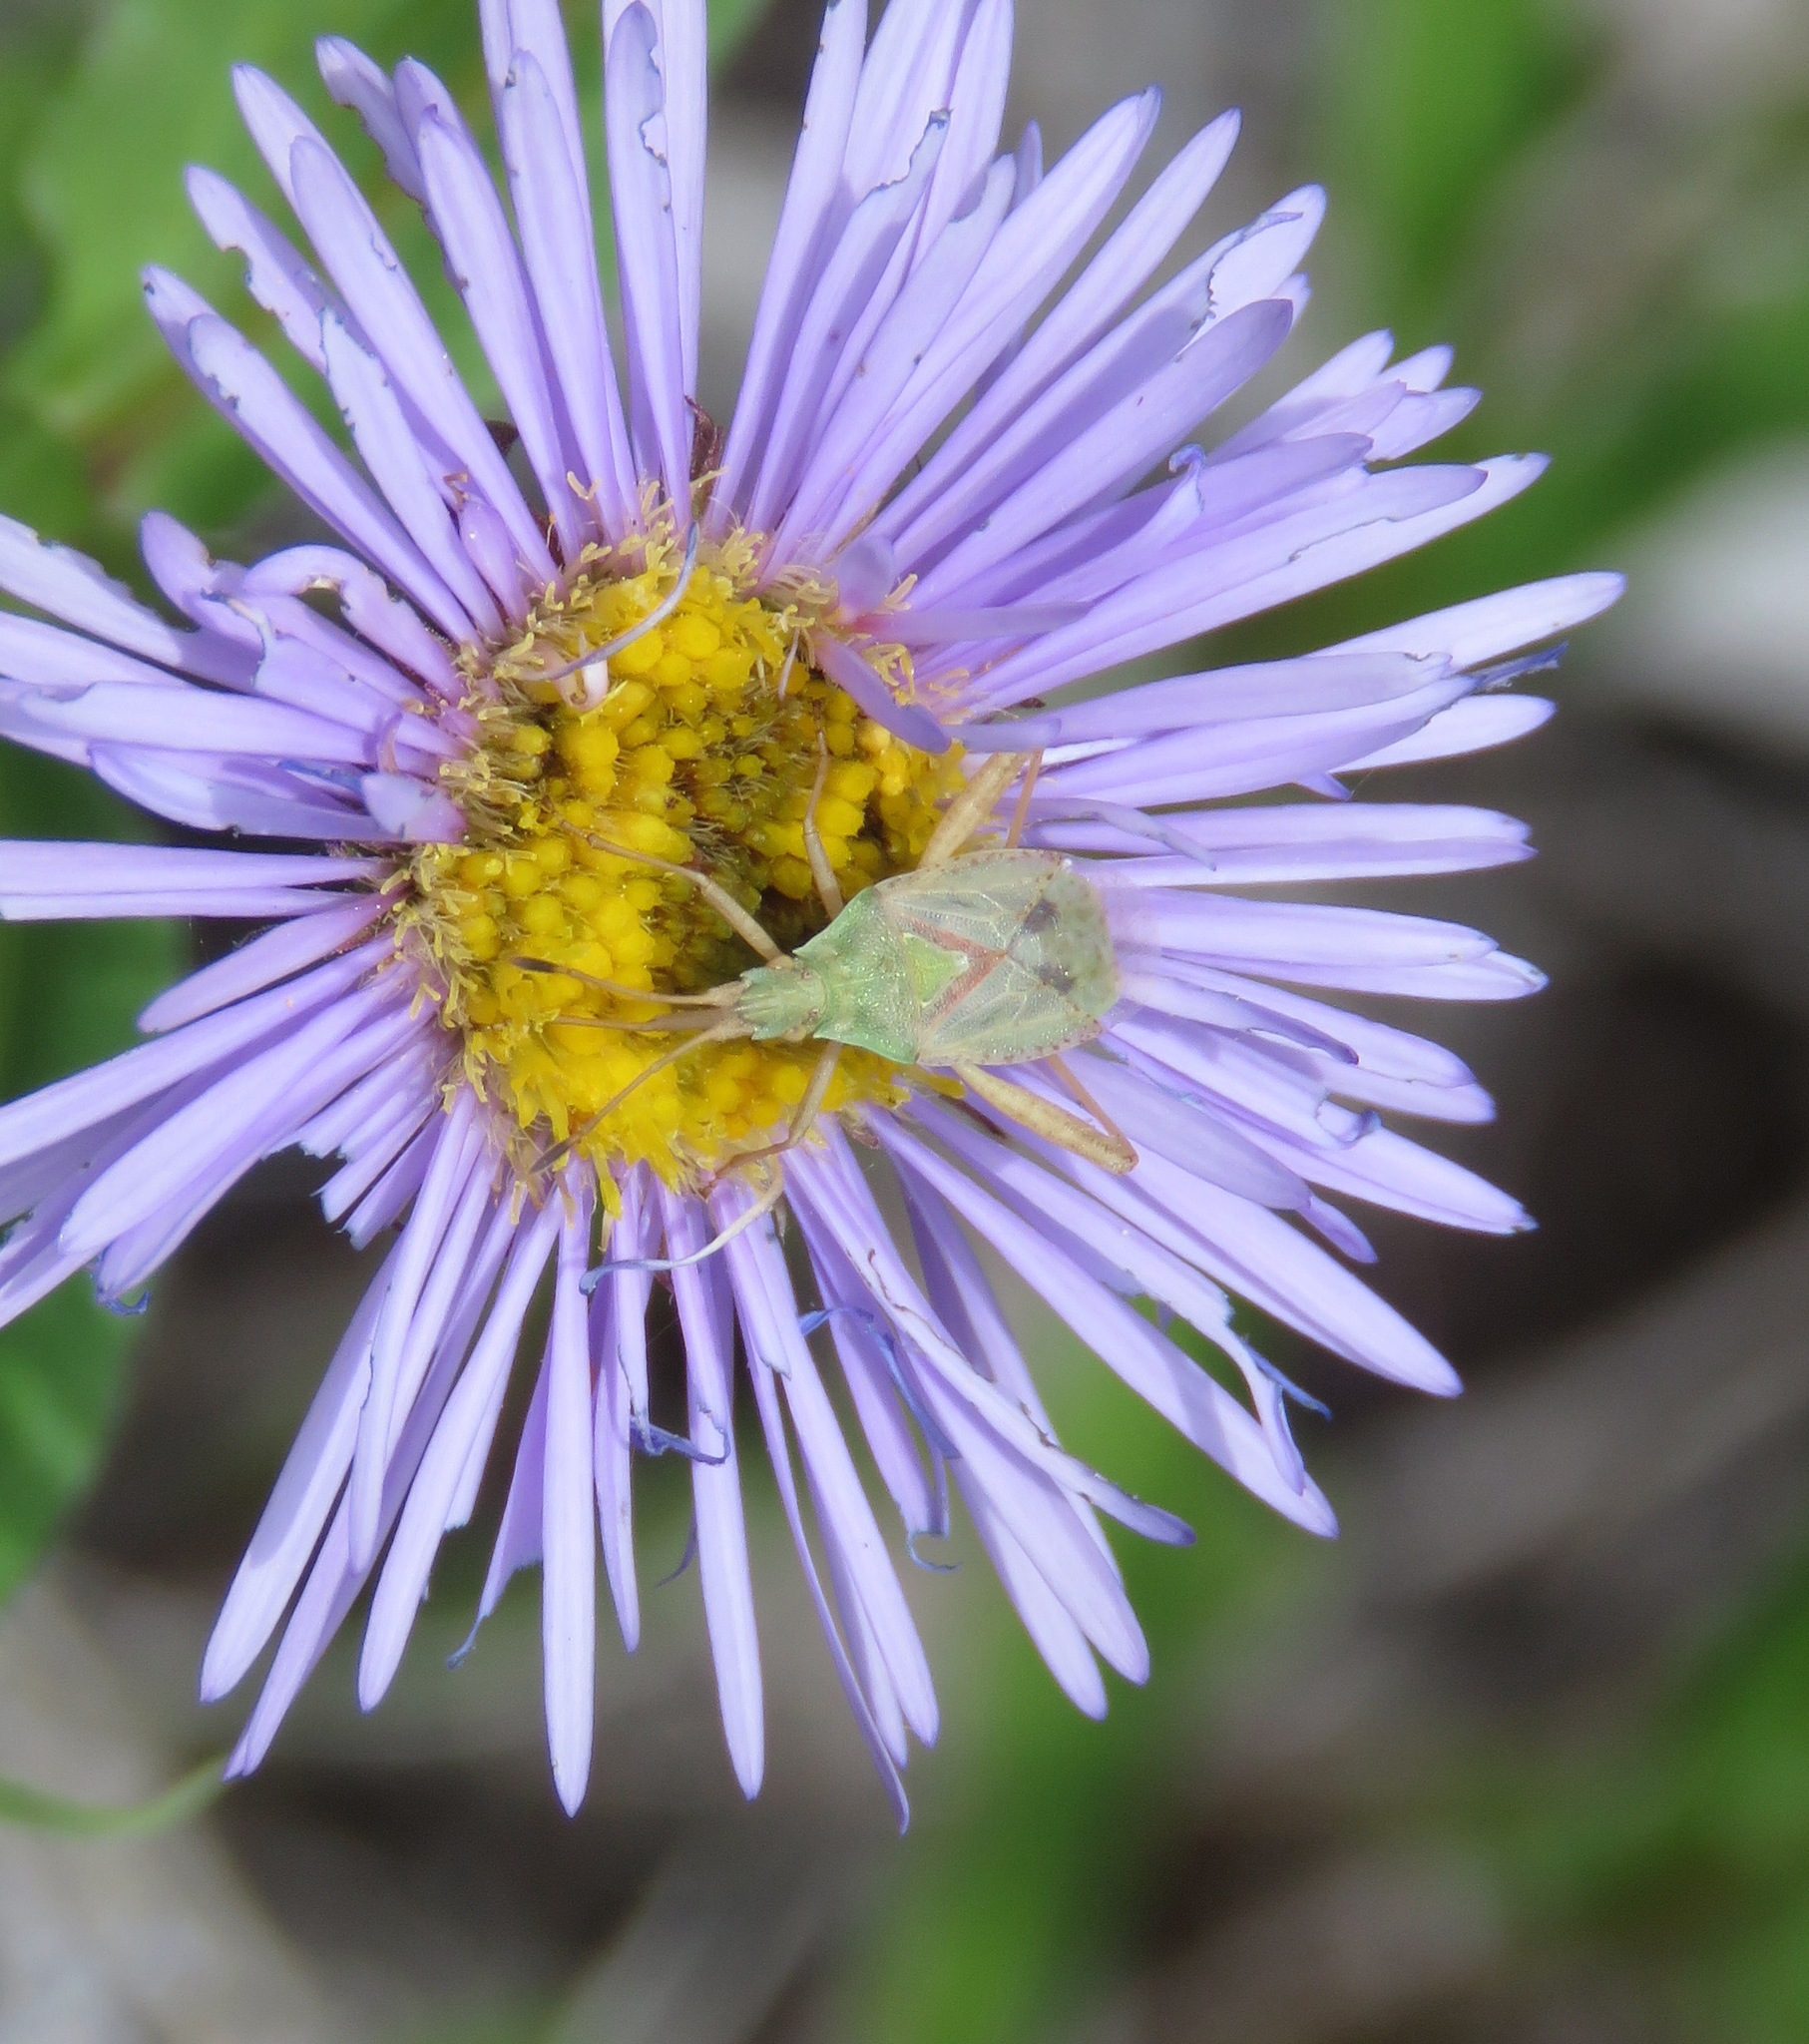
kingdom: Animalia
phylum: Arthropoda
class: Insecta
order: Hemiptera
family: Rhopalidae
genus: Harmostes
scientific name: Harmostes reflexulus
